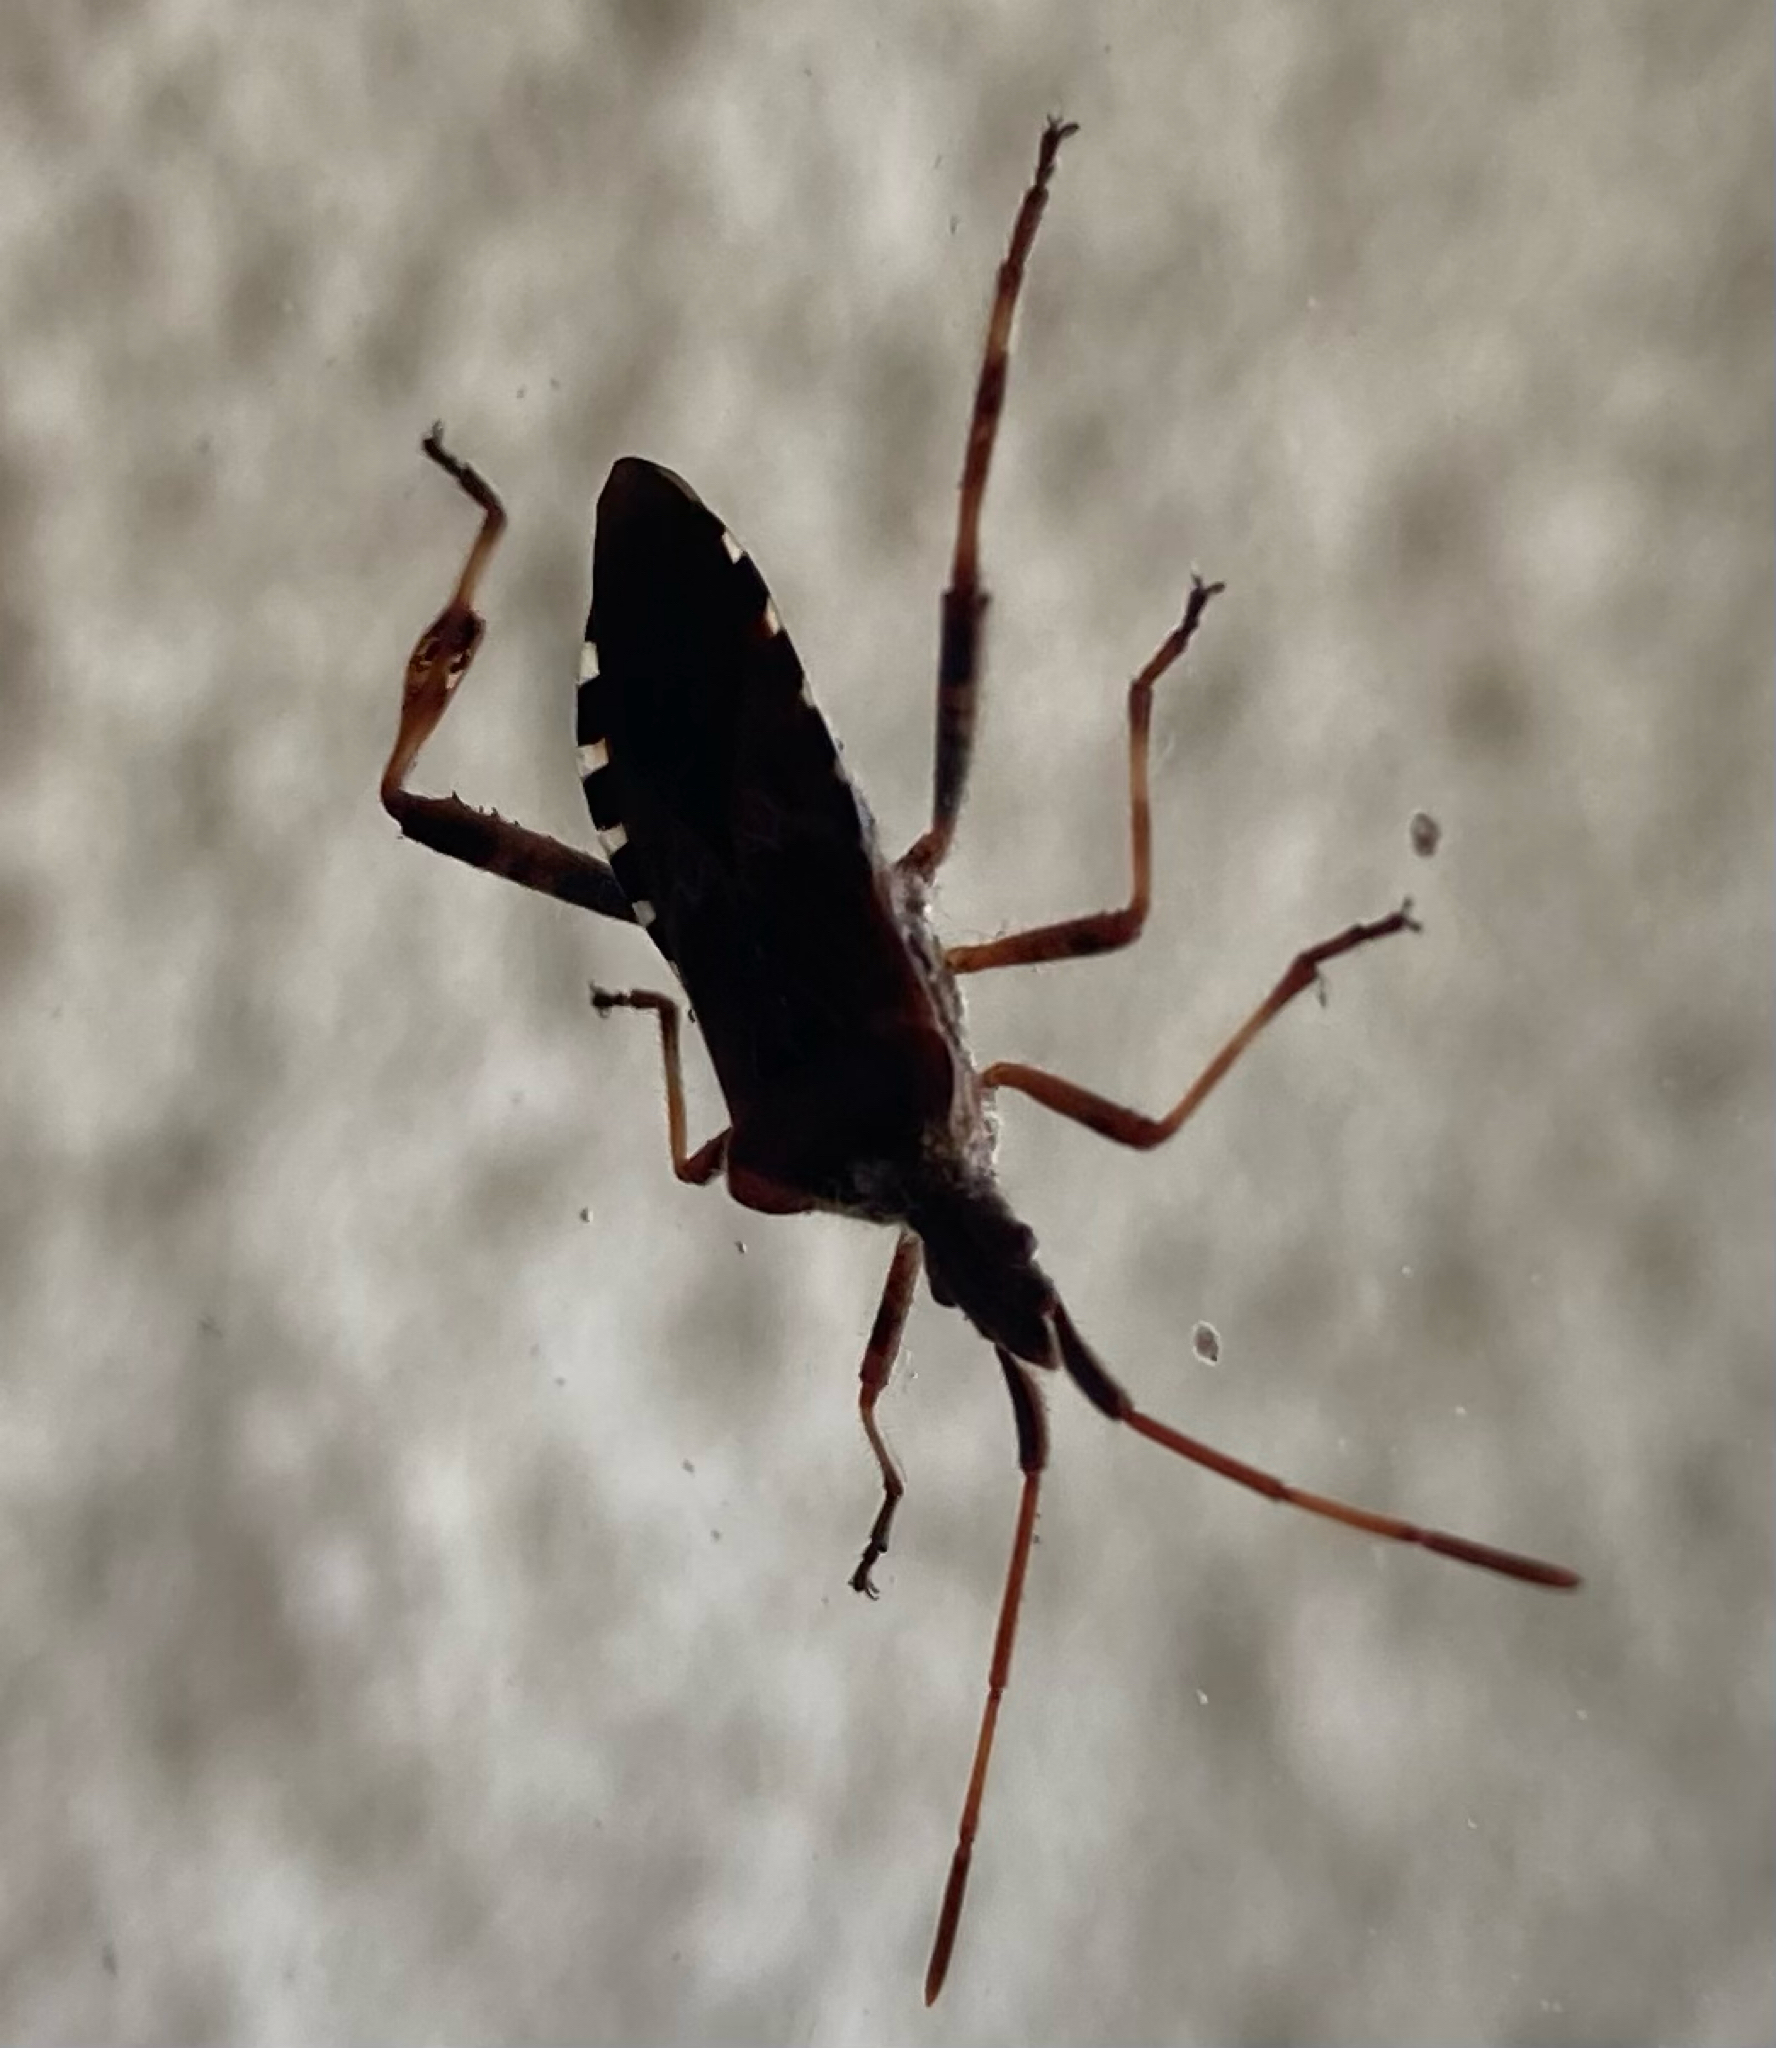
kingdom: Animalia
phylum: Arthropoda
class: Insecta
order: Hemiptera
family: Coreidae
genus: Leptoglossus
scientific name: Leptoglossus occidentalis
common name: Western conifer-seed bug
